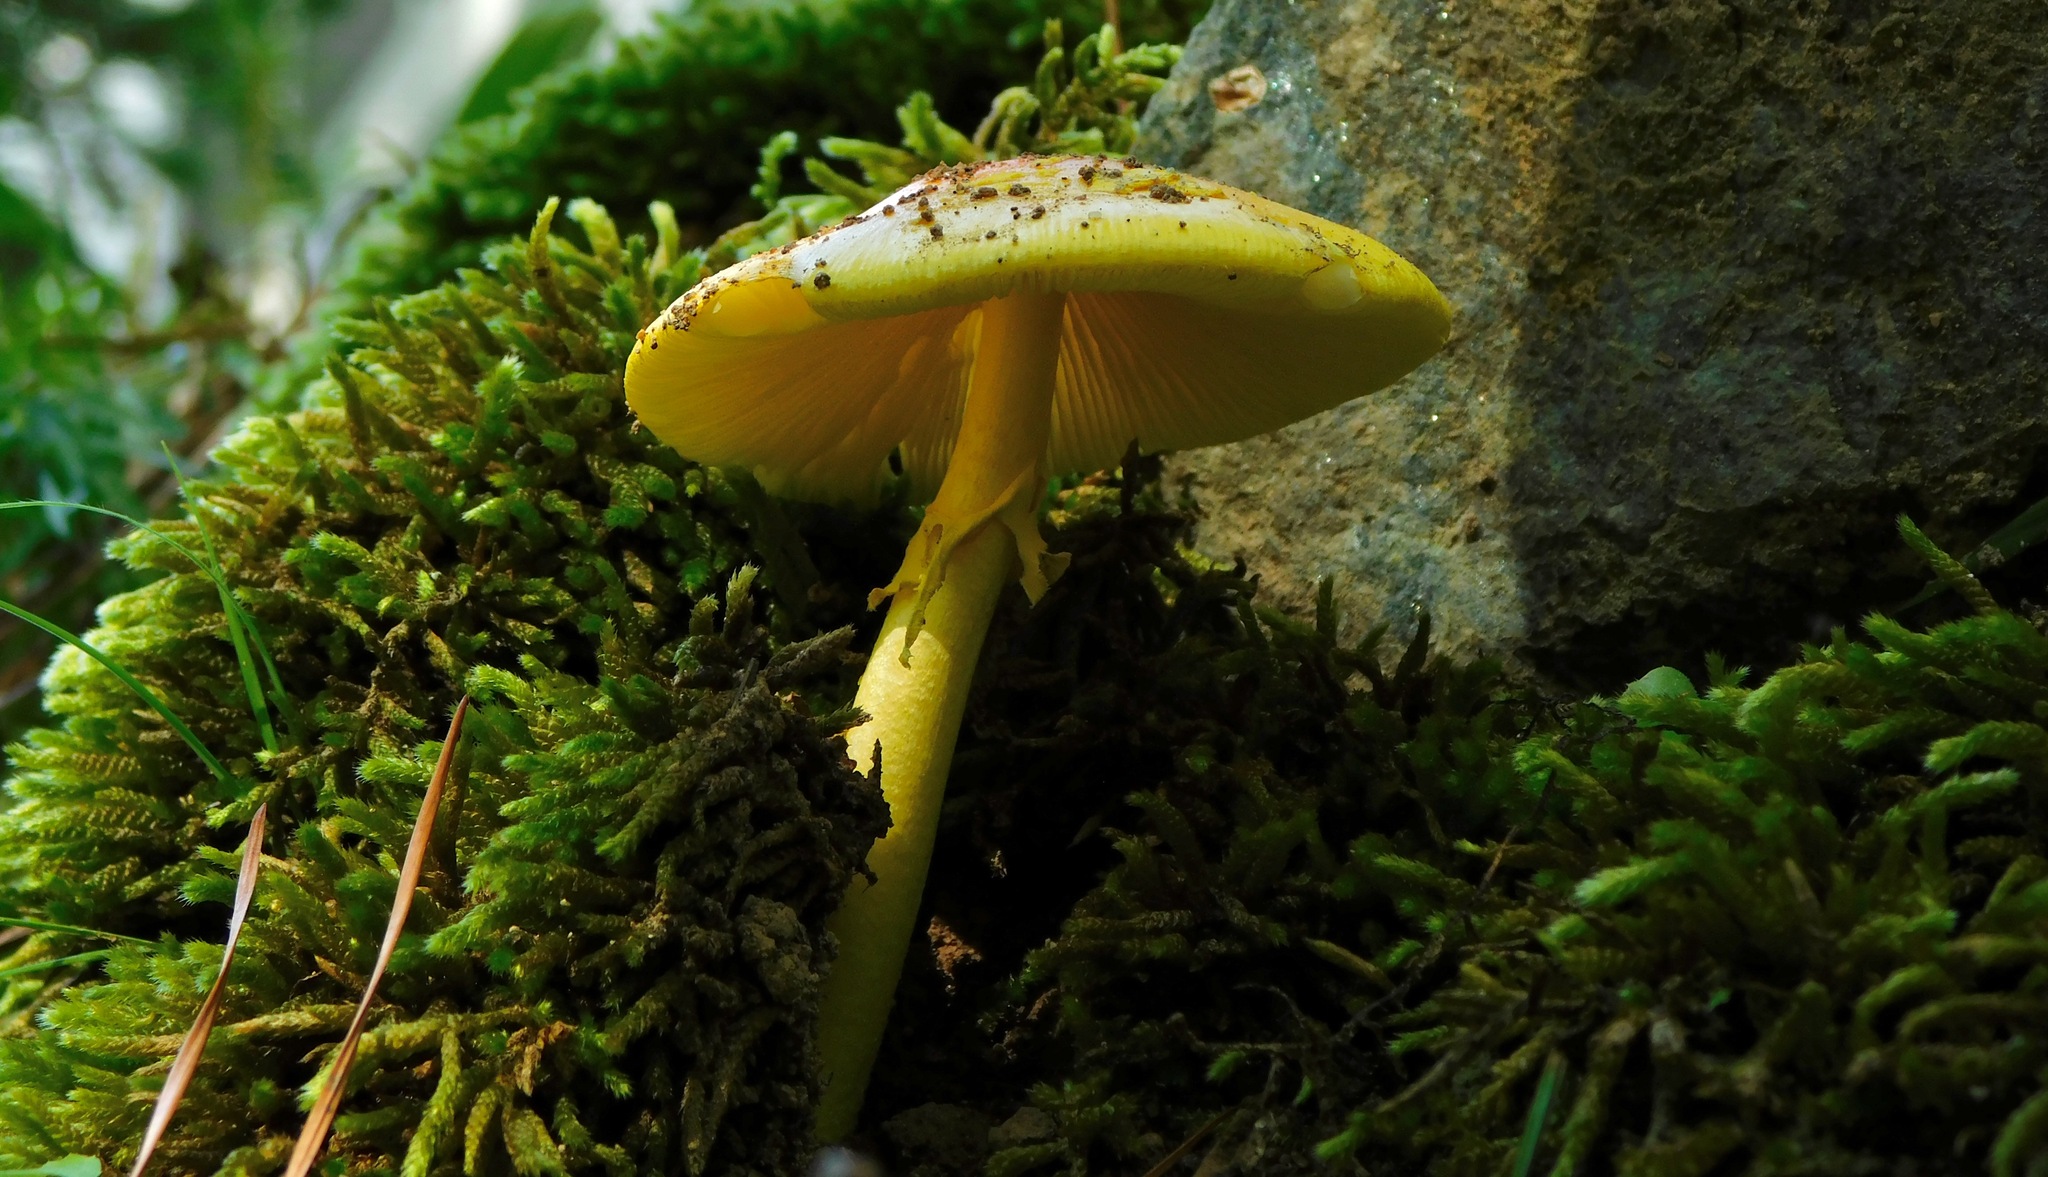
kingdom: Fungi
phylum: Basidiomycota
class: Agaricomycetes
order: Agaricales
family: Amanitaceae
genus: Amanita
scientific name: Amanita flavoconia
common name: Yellow patches
